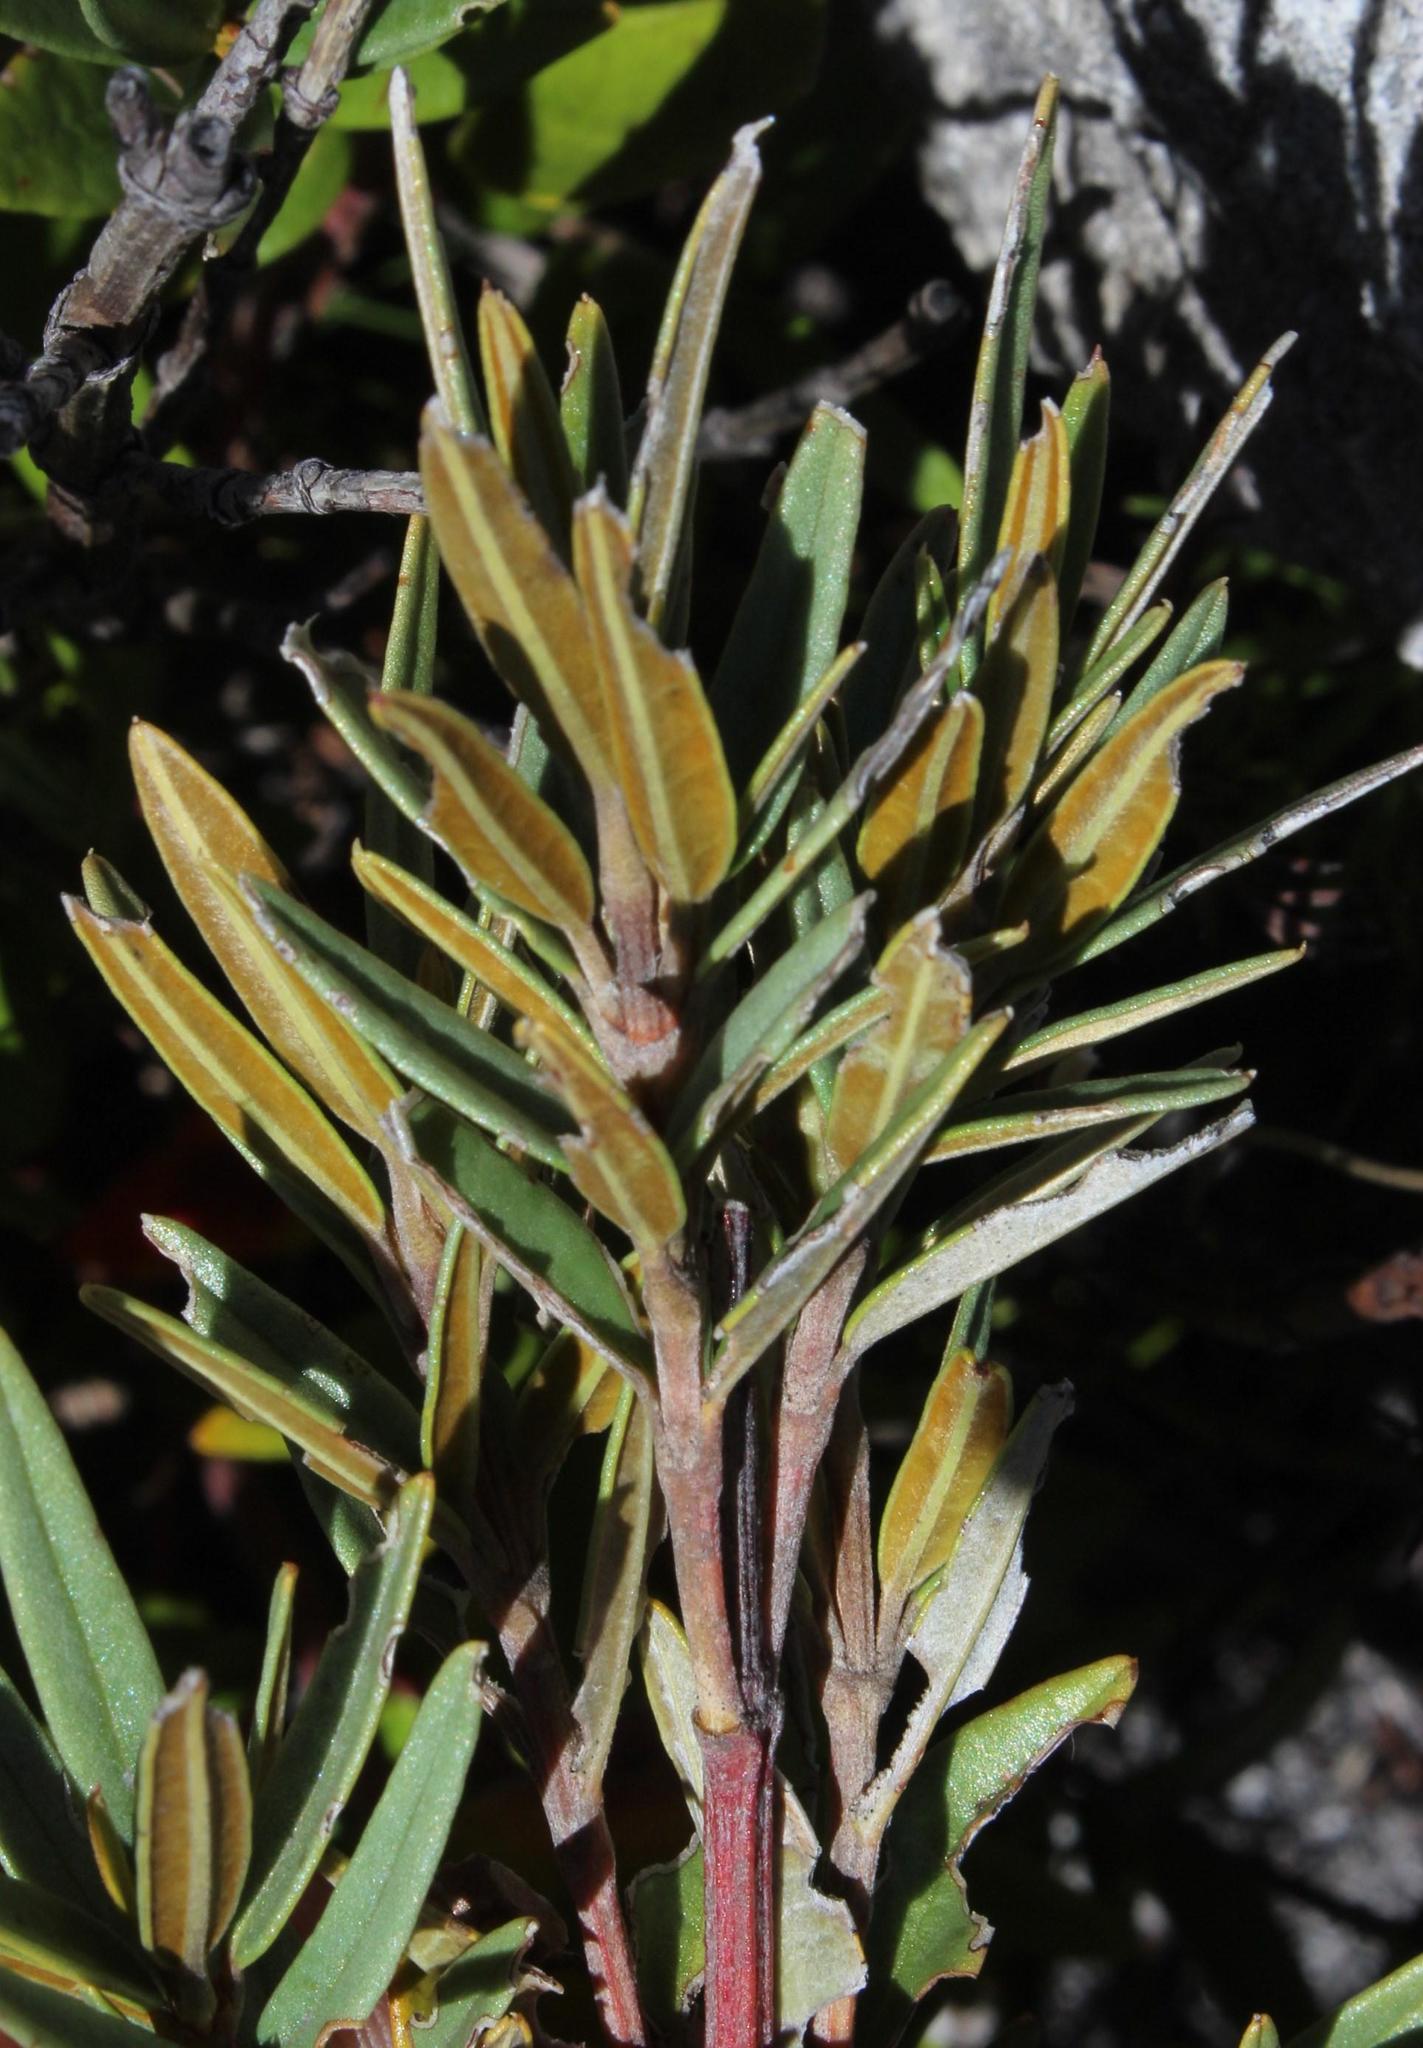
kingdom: Plantae
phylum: Tracheophyta
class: Magnoliopsida
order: Cornales
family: Grubbiaceae
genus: Grubbia
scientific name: Grubbia tomentosa
